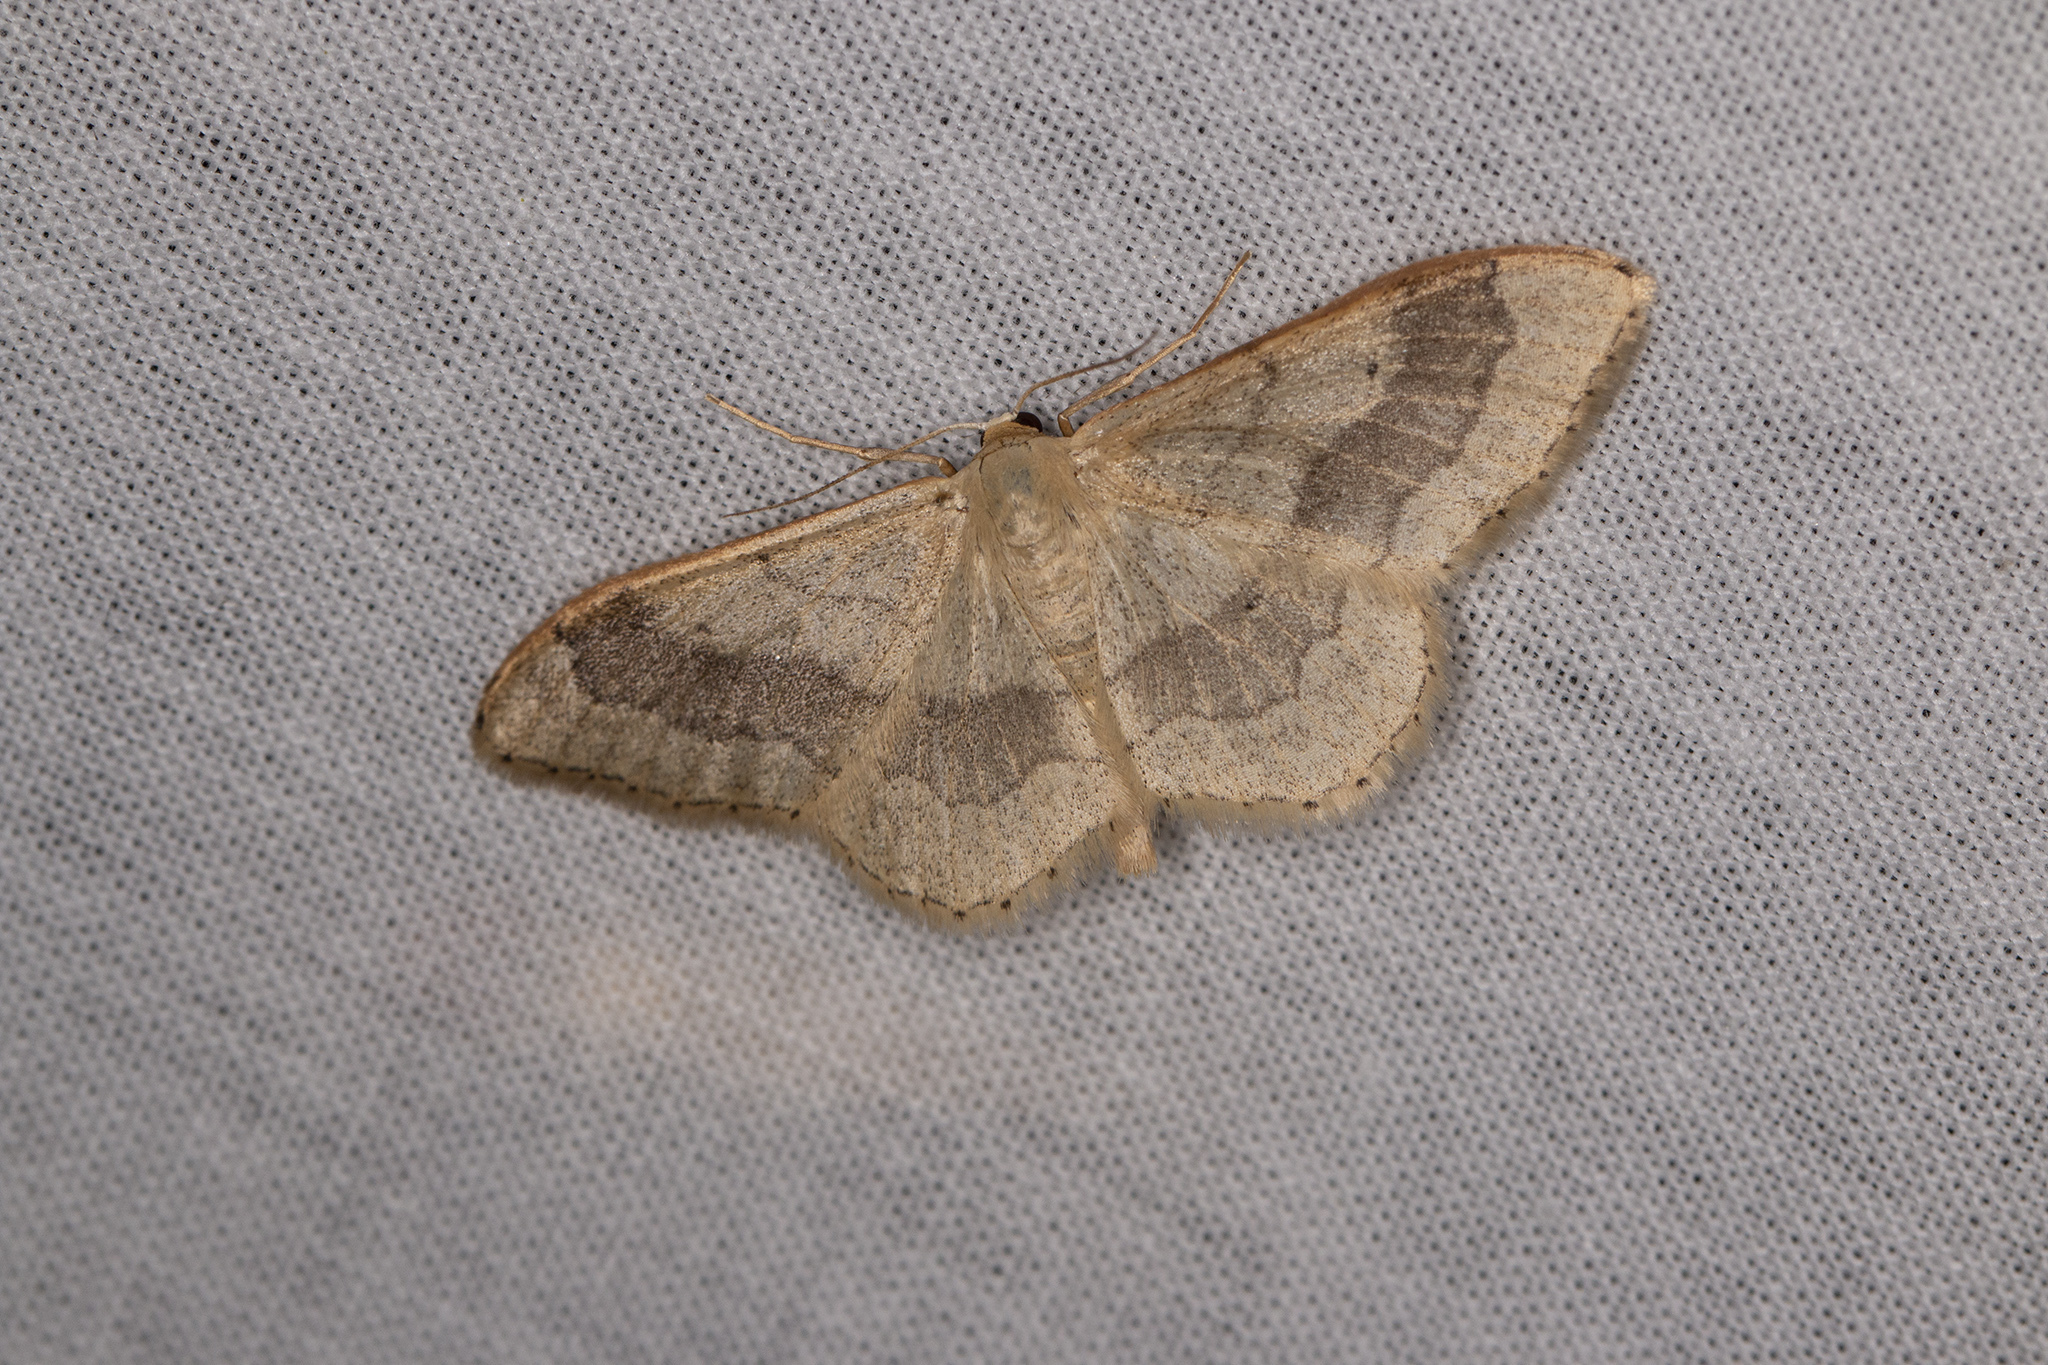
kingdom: Animalia
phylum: Arthropoda
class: Insecta
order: Lepidoptera
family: Geometridae
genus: Idaea
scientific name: Idaea aversata
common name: Riband wave
